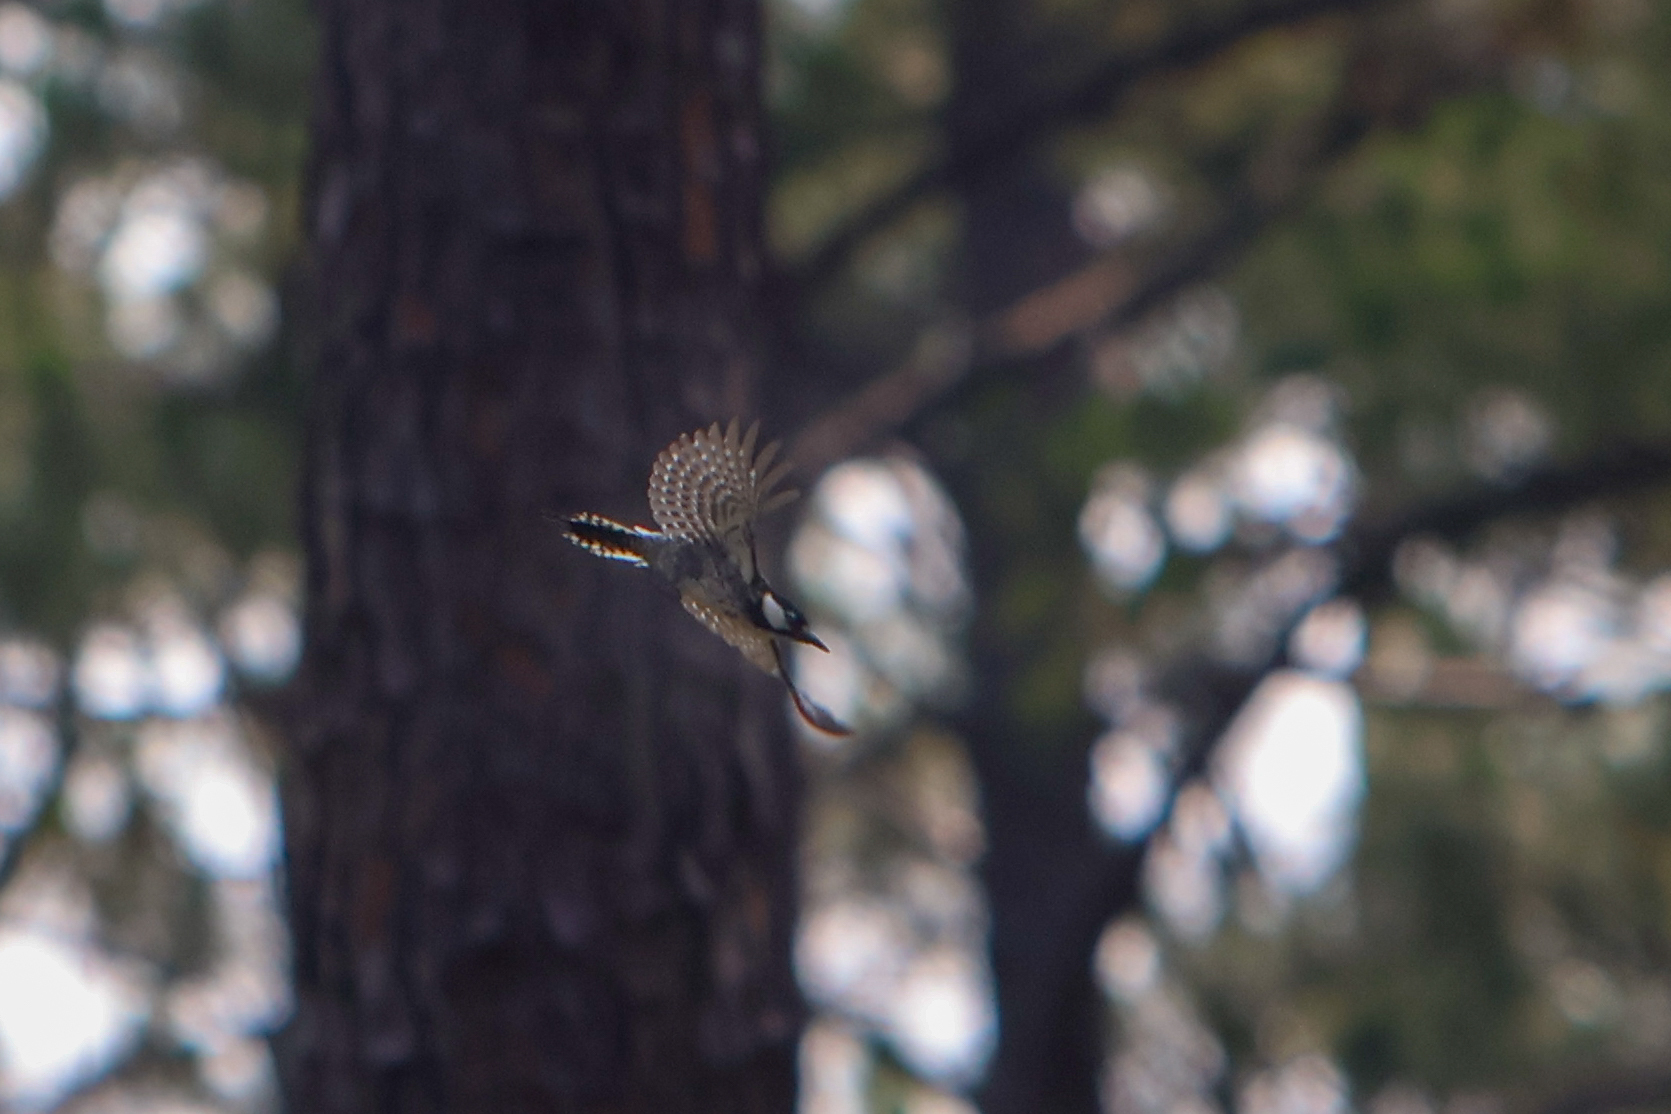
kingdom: Animalia
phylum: Chordata
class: Aves
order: Piciformes
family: Picidae
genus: Leuconotopicus
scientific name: Leuconotopicus borealis
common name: Red-cockaded woodpecker
